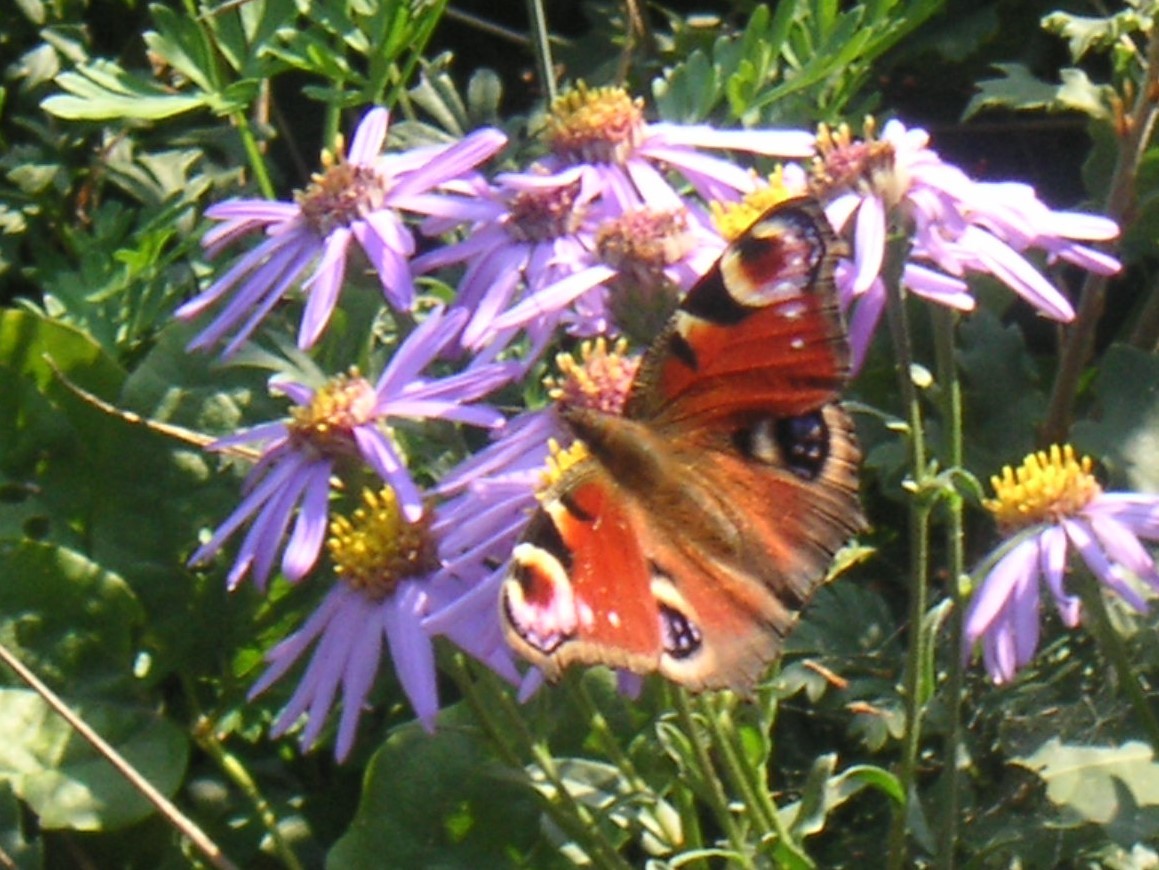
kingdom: Animalia
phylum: Arthropoda
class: Insecta
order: Lepidoptera
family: Nymphalidae
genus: Aglais
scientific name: Aglais io
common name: Peacock
